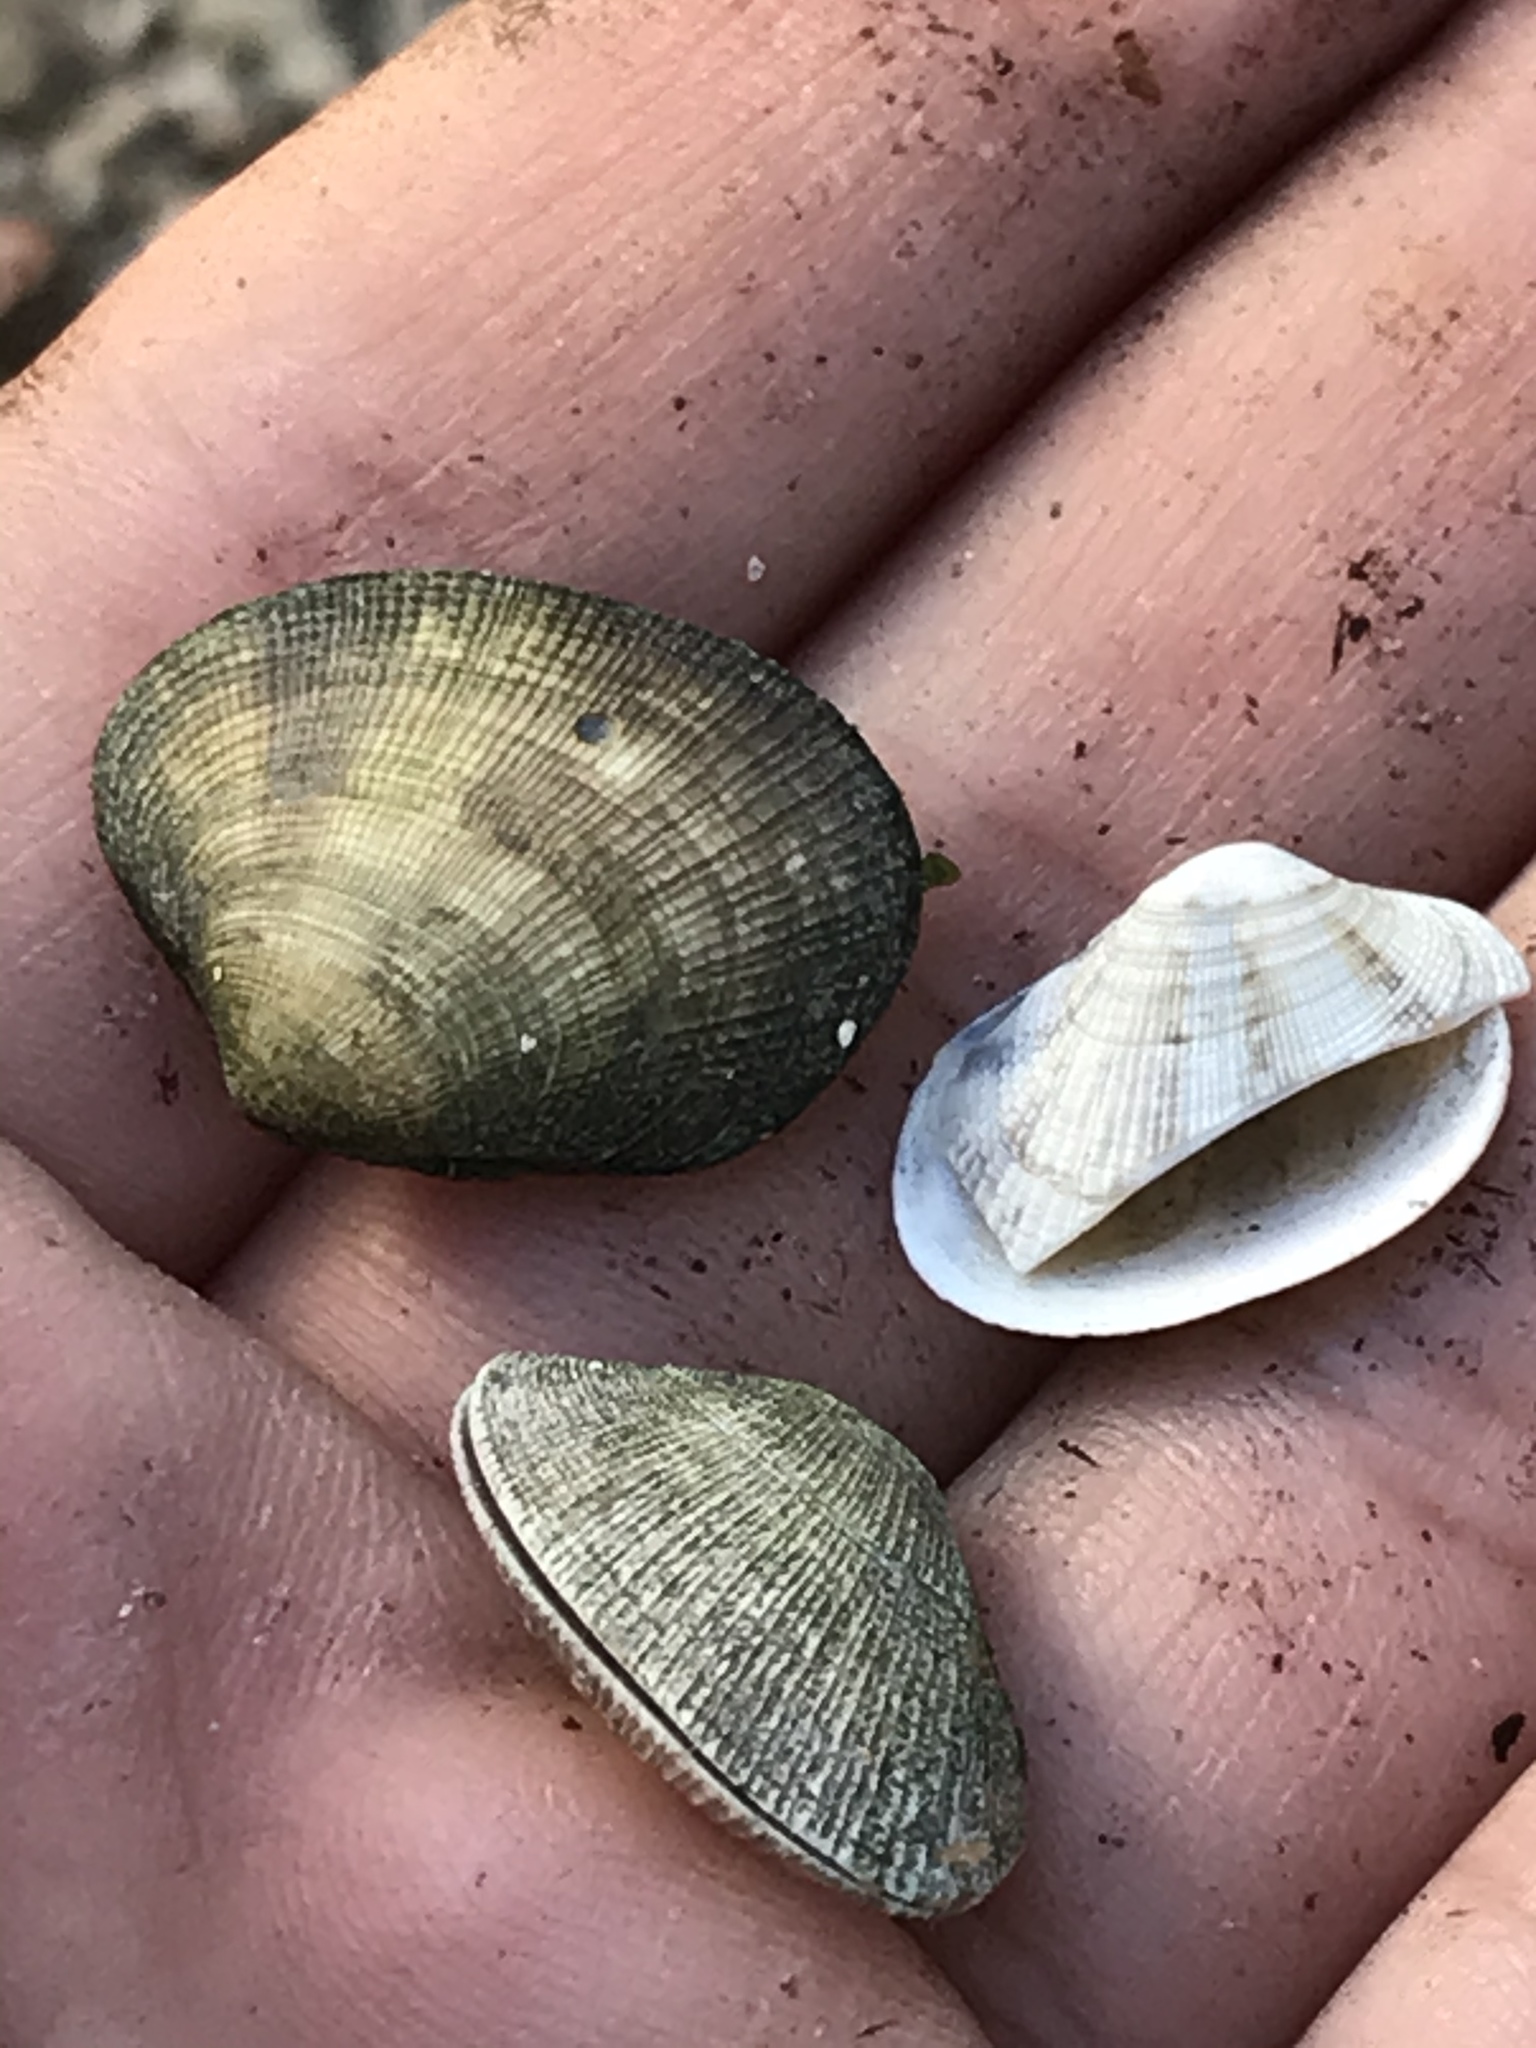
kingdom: Animalia
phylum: Mollusca
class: Bivalvia
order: Venerida
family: Veneridae
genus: Ruditapes
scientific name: Ruditapes philippinarum
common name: Manila clam
